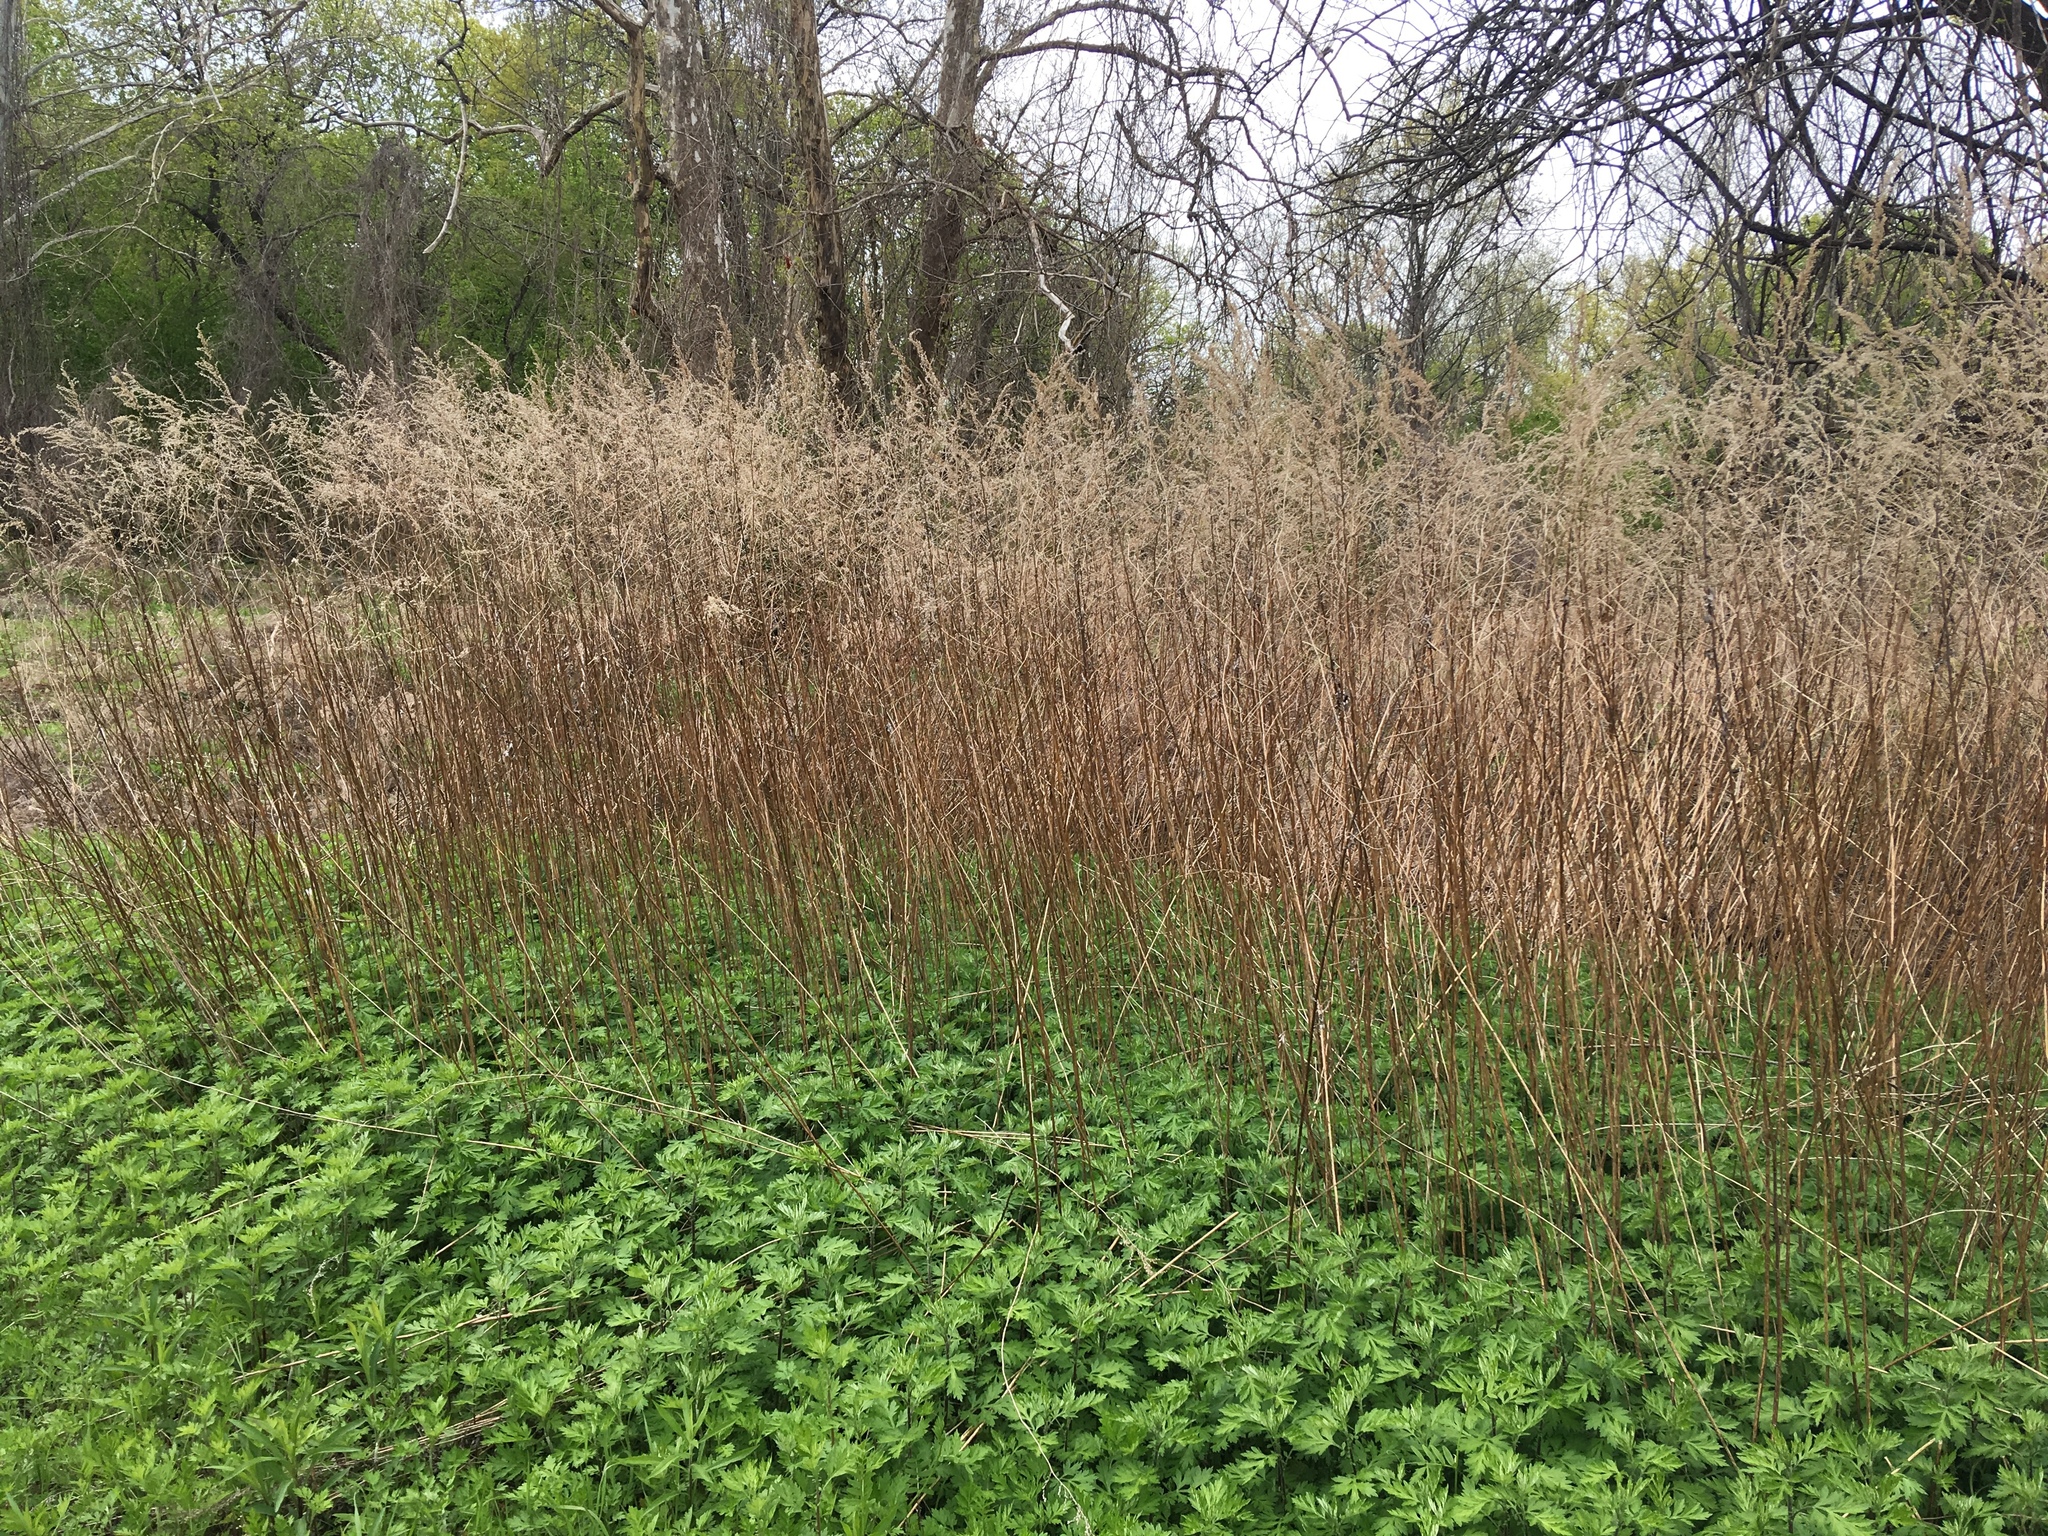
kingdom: Plantae
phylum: Tracheophyta
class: Magnoliopsida
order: Asterales
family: Asteraceae
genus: Artemisia
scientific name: Artemisia vulgaris
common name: Mugwort
